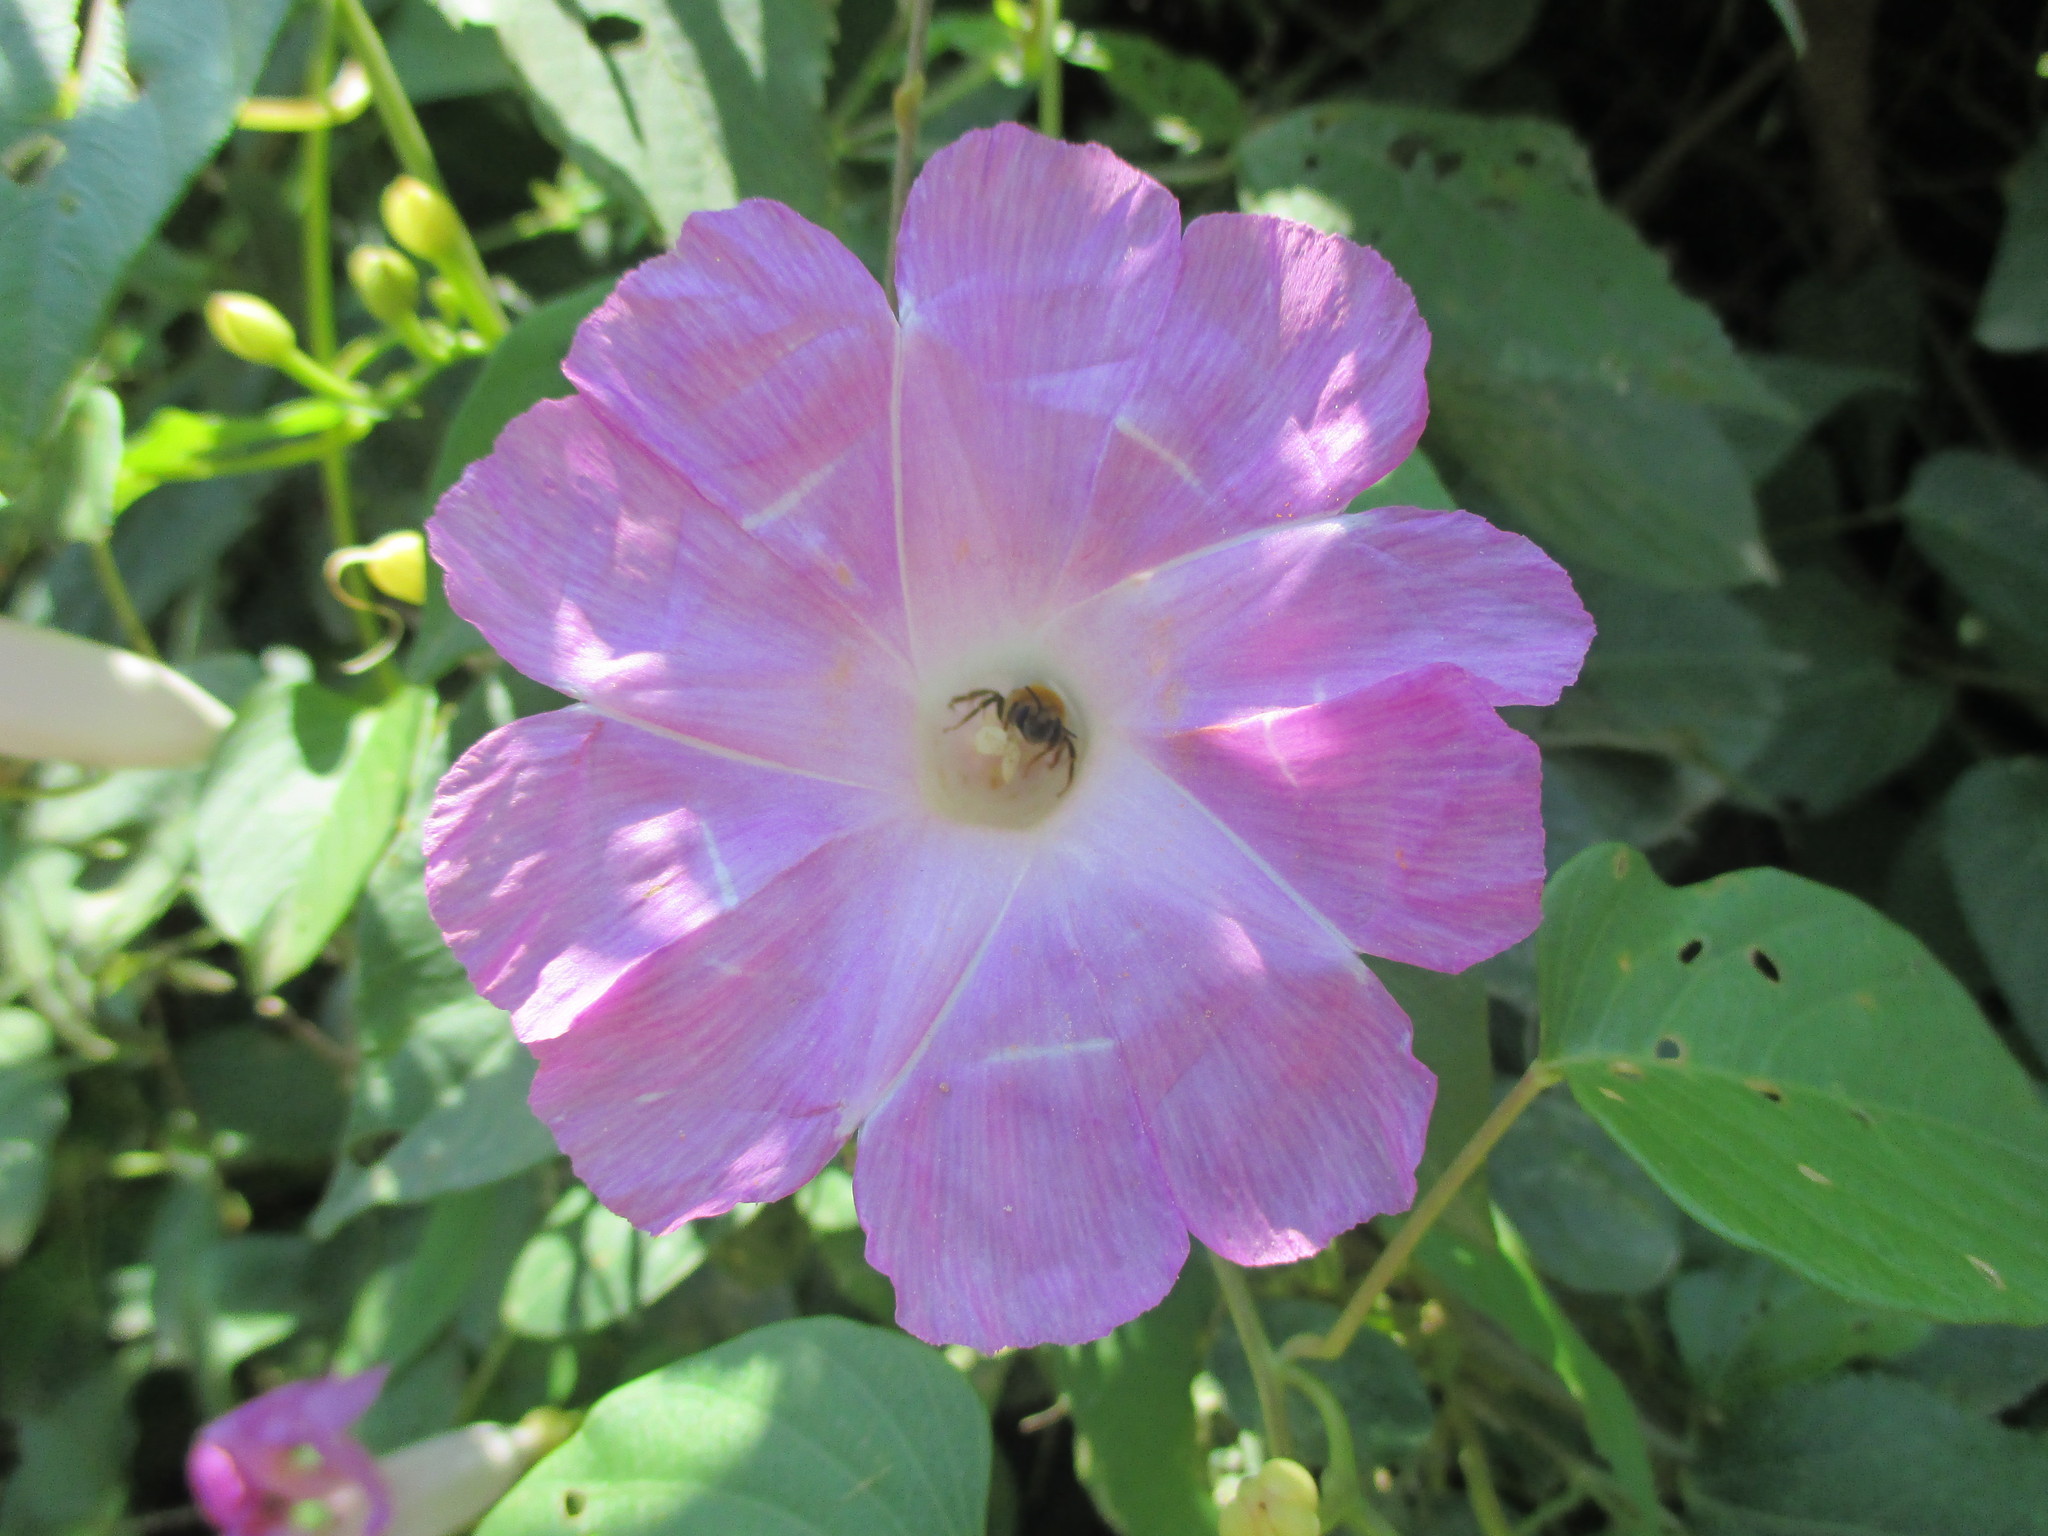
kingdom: Plantae
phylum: Tracheophyta
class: Magnoliopsida
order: Solanales
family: Convolvulaceae
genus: Ipomoea
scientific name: Ipomoea batatoides
